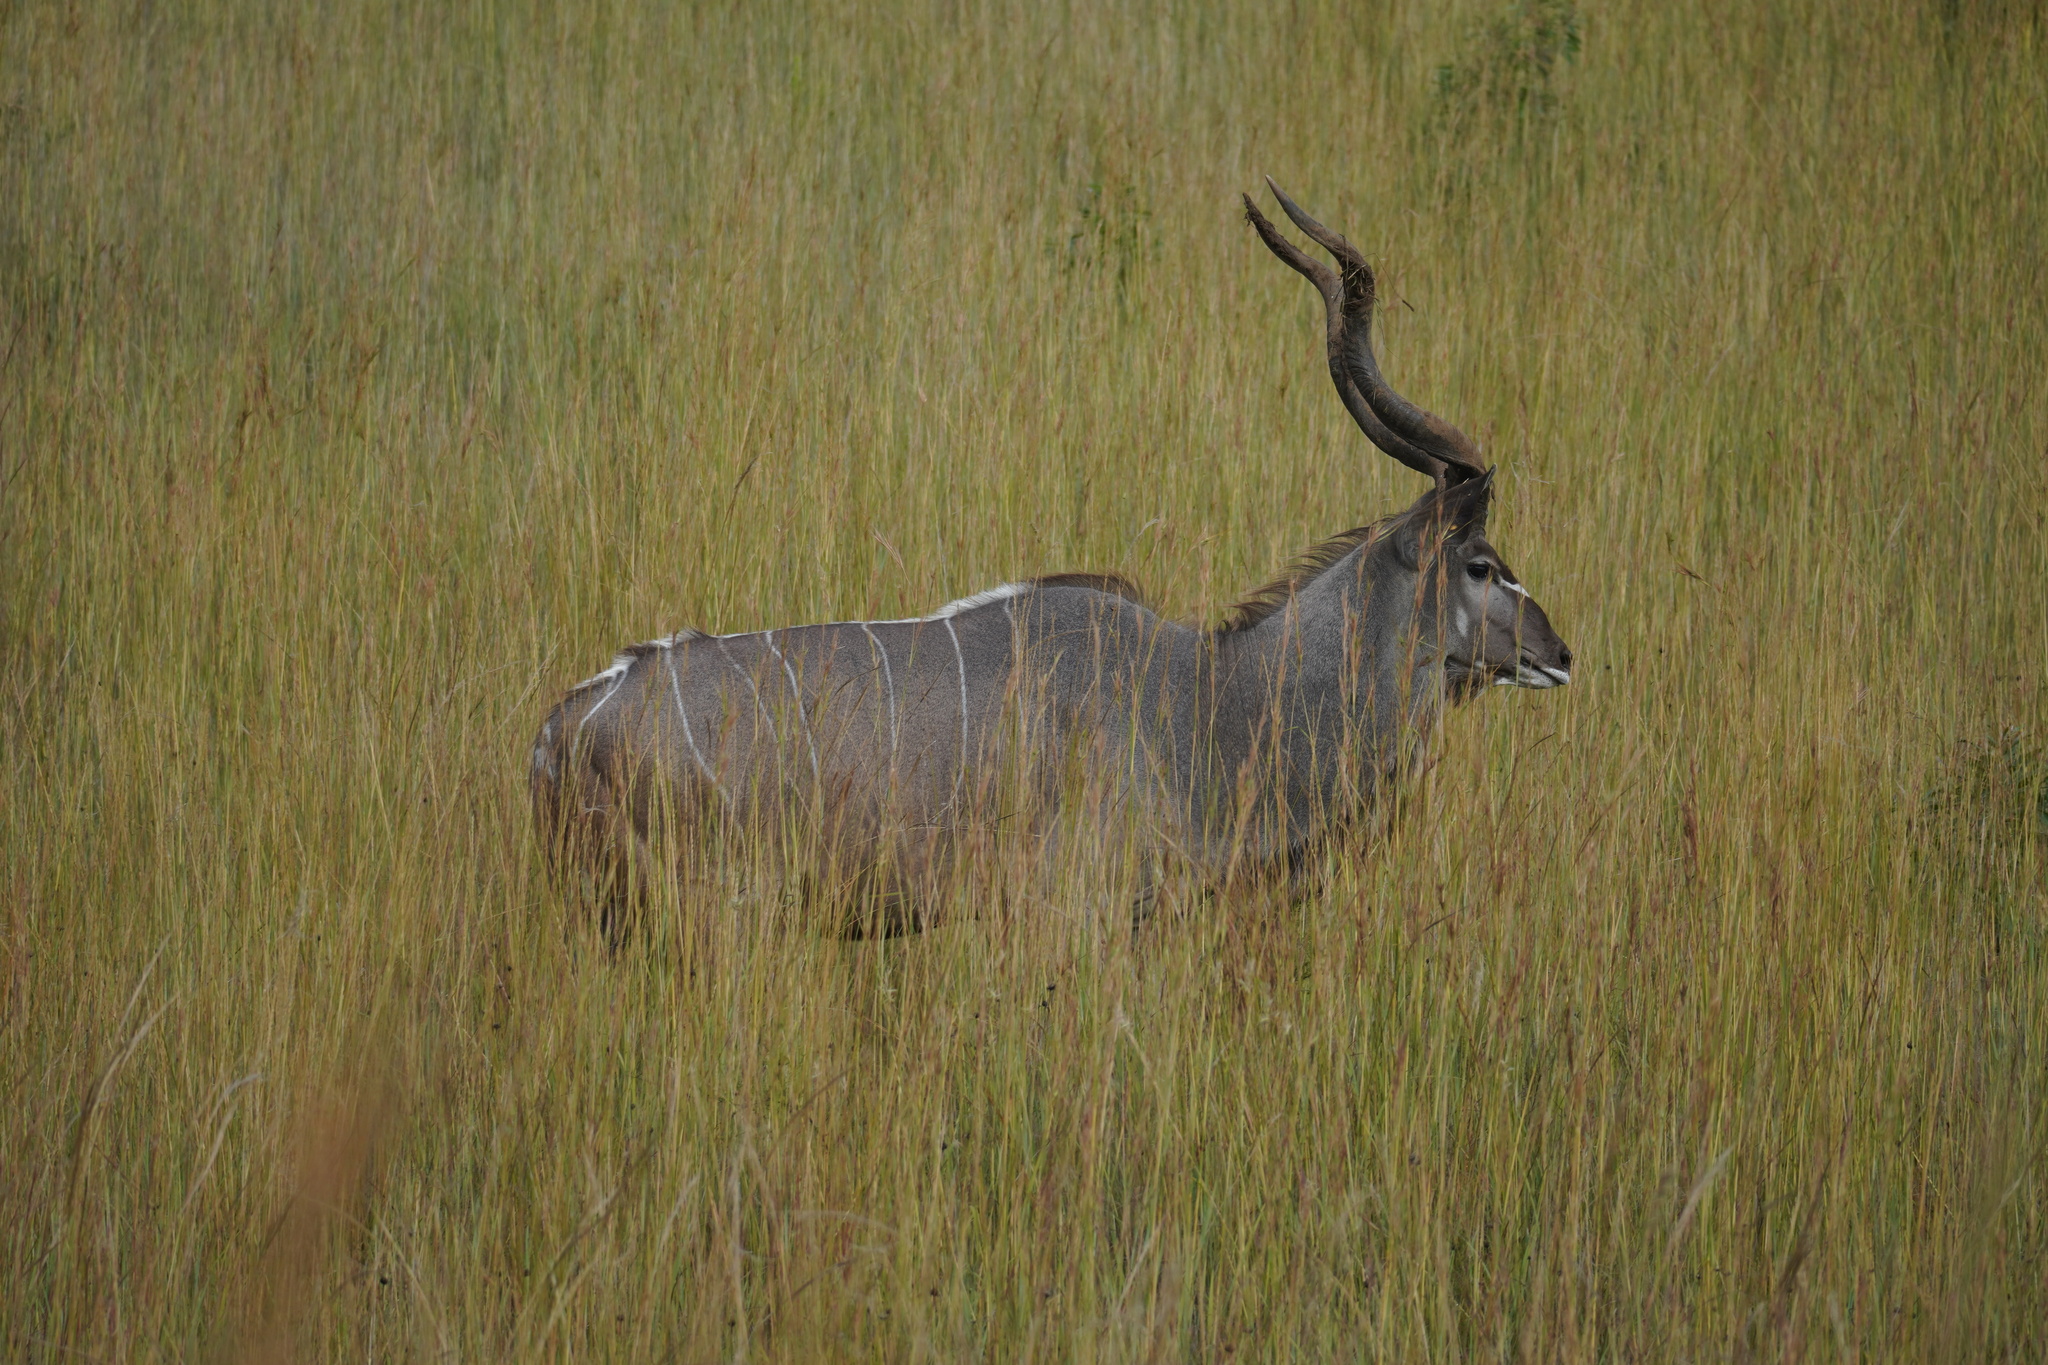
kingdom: Animalia
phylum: Chordata
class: Mammalia
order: Artiodactyla
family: Bovidae
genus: Tragelaphus
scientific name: Tragelaphus strepsiceros
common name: Greater kudu
